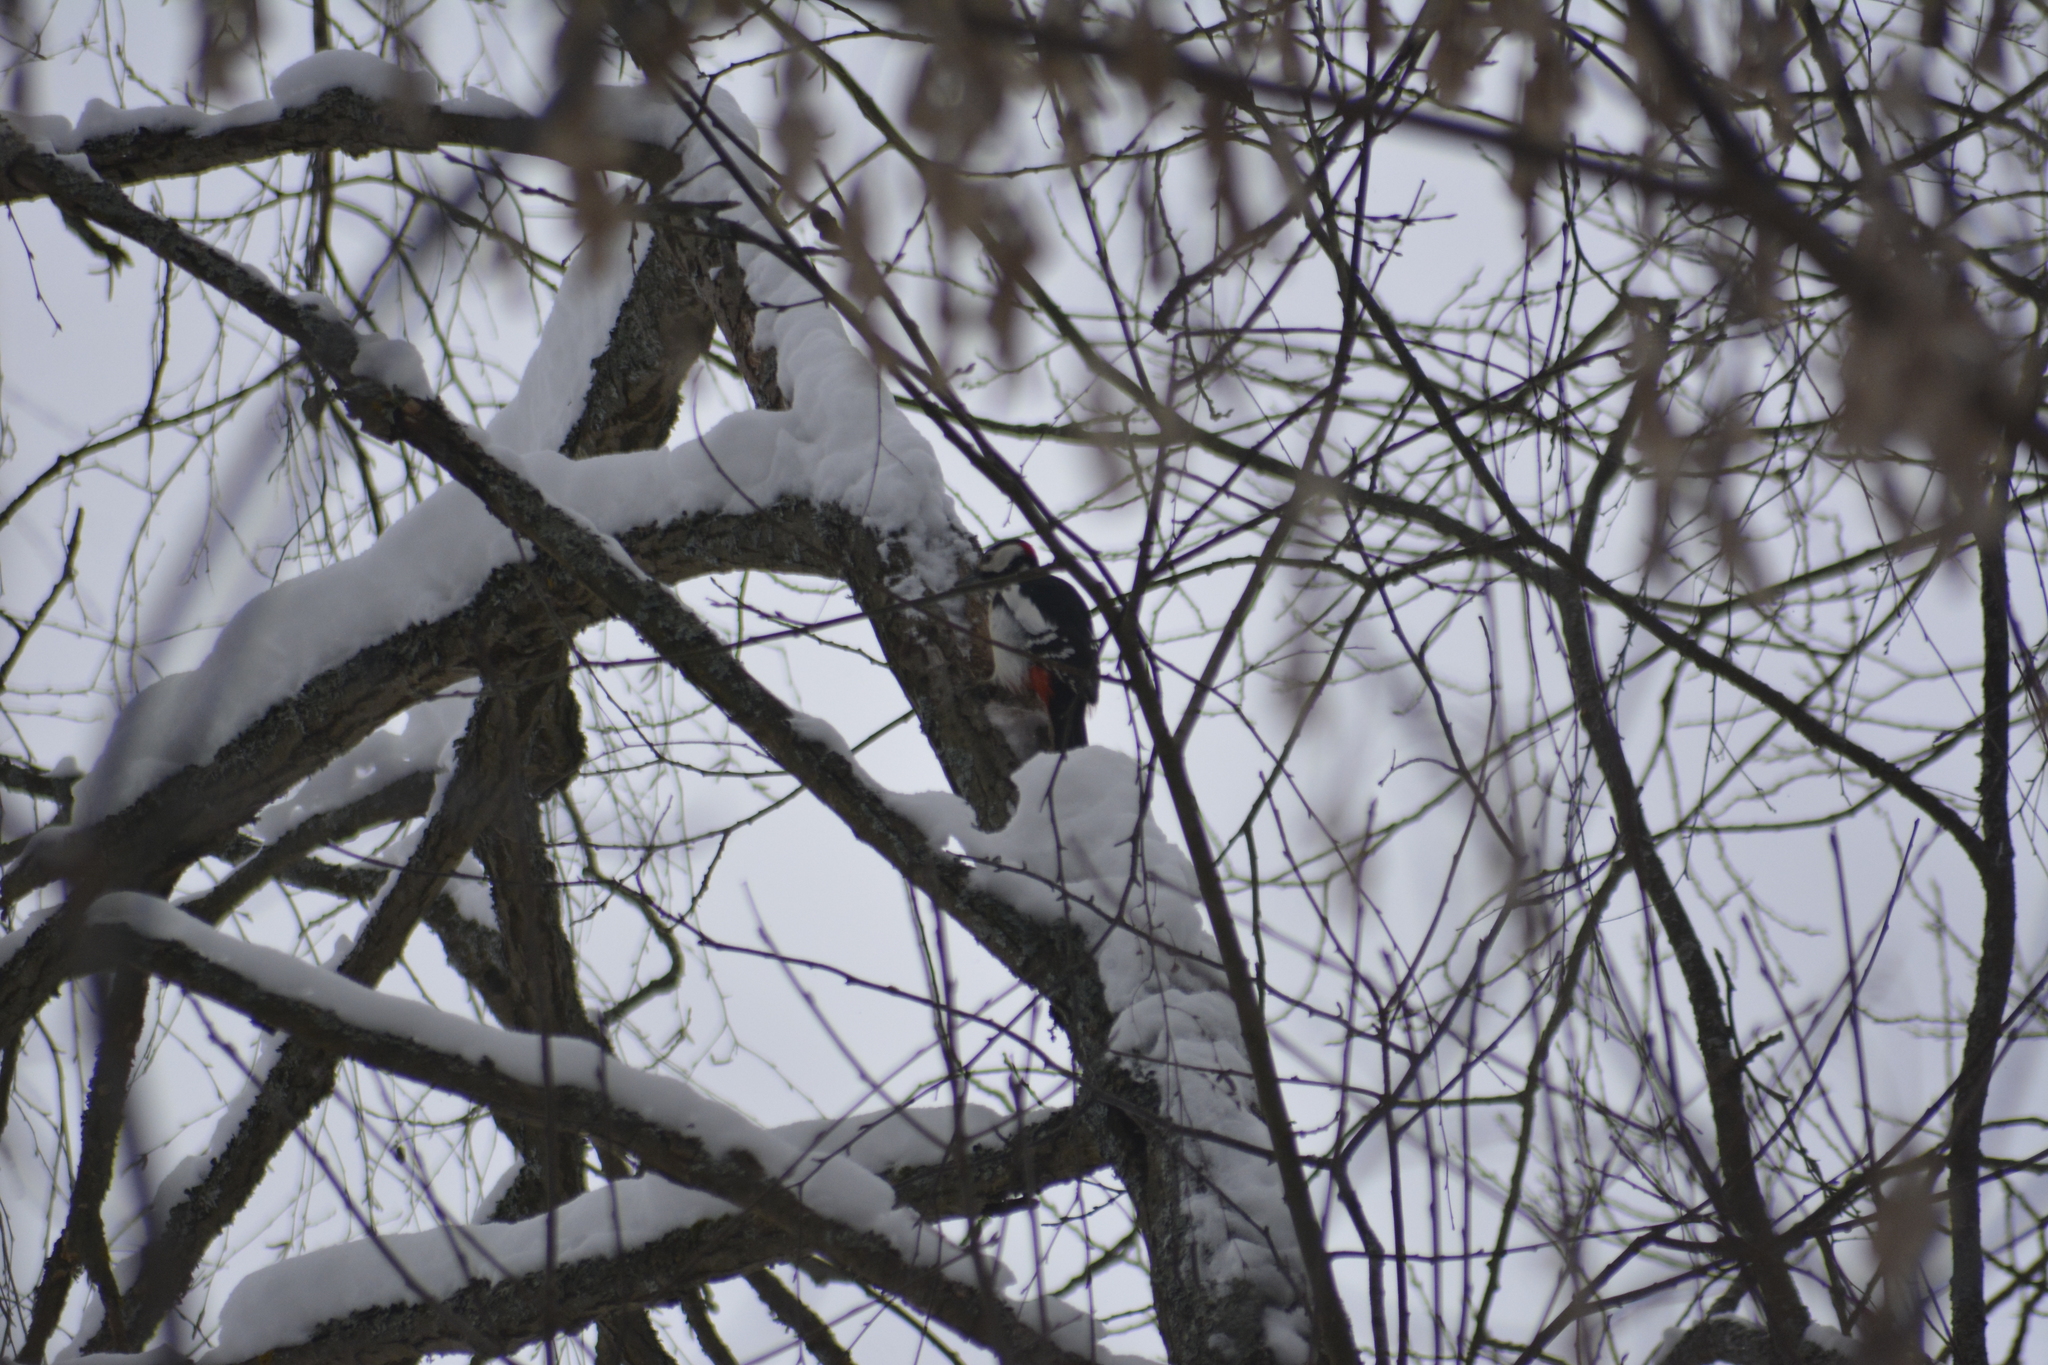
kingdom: Animalia
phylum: Chordata
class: Aves
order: Piciformes
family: Picidae
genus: Dendrocopos
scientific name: Dendrocopos major
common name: Great spotted woodpecker
